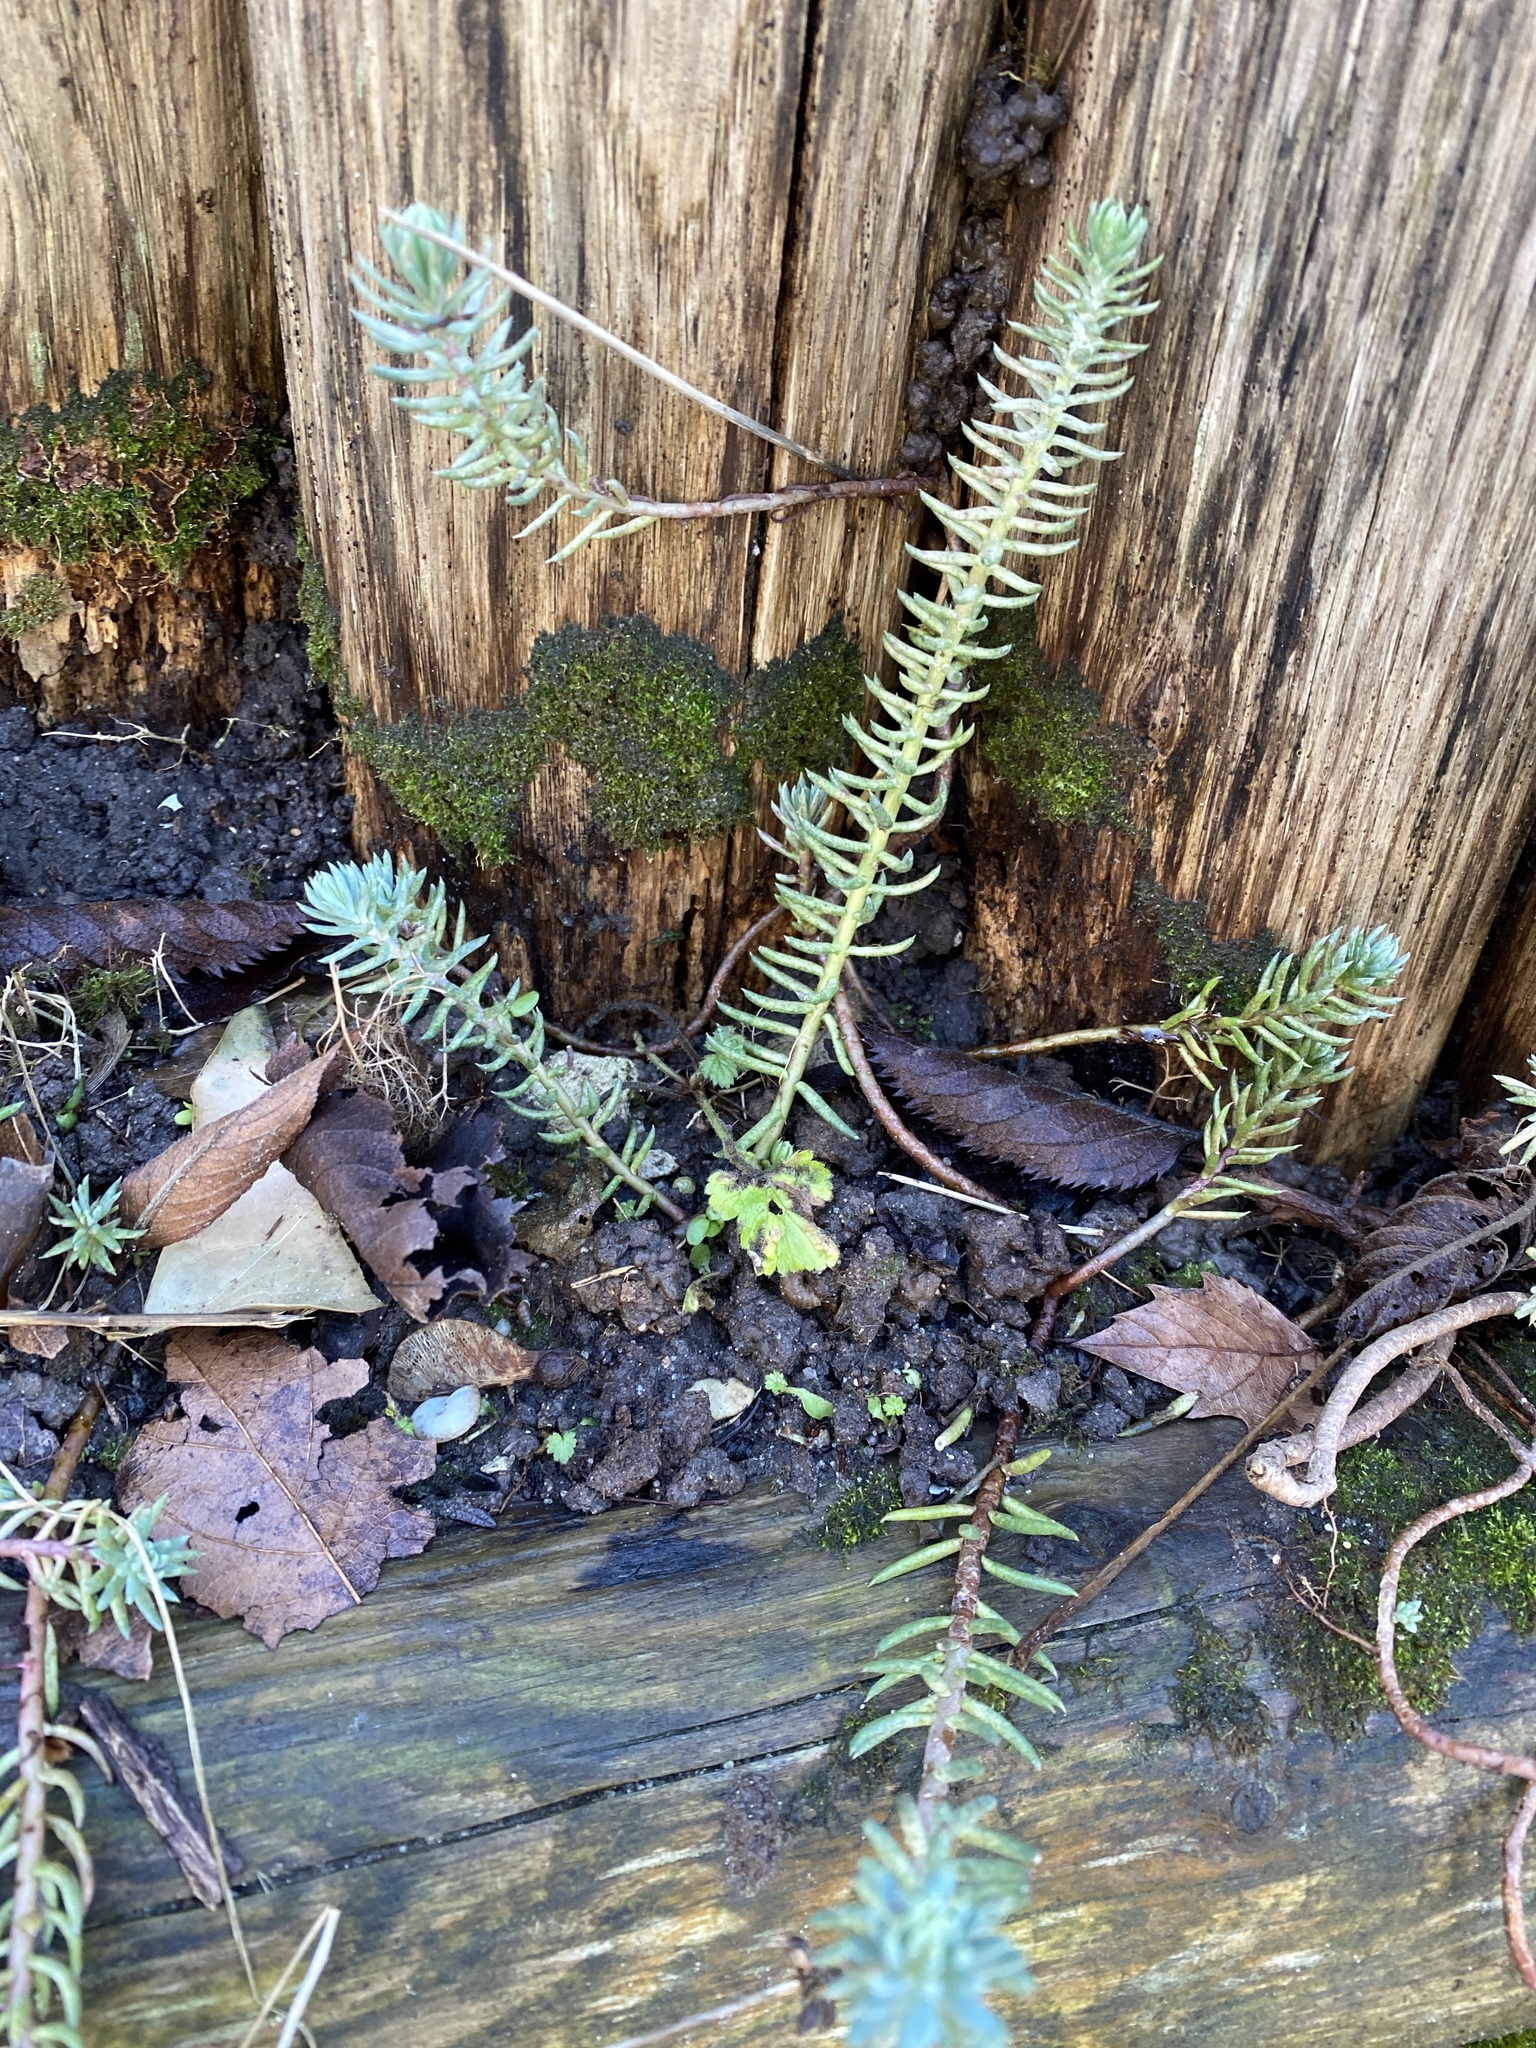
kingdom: Plantae
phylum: Tracheophyta
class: Magnoliopsida
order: Saxifragales
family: Crassulaceae
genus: Petrosedum
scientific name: Petrosedum
